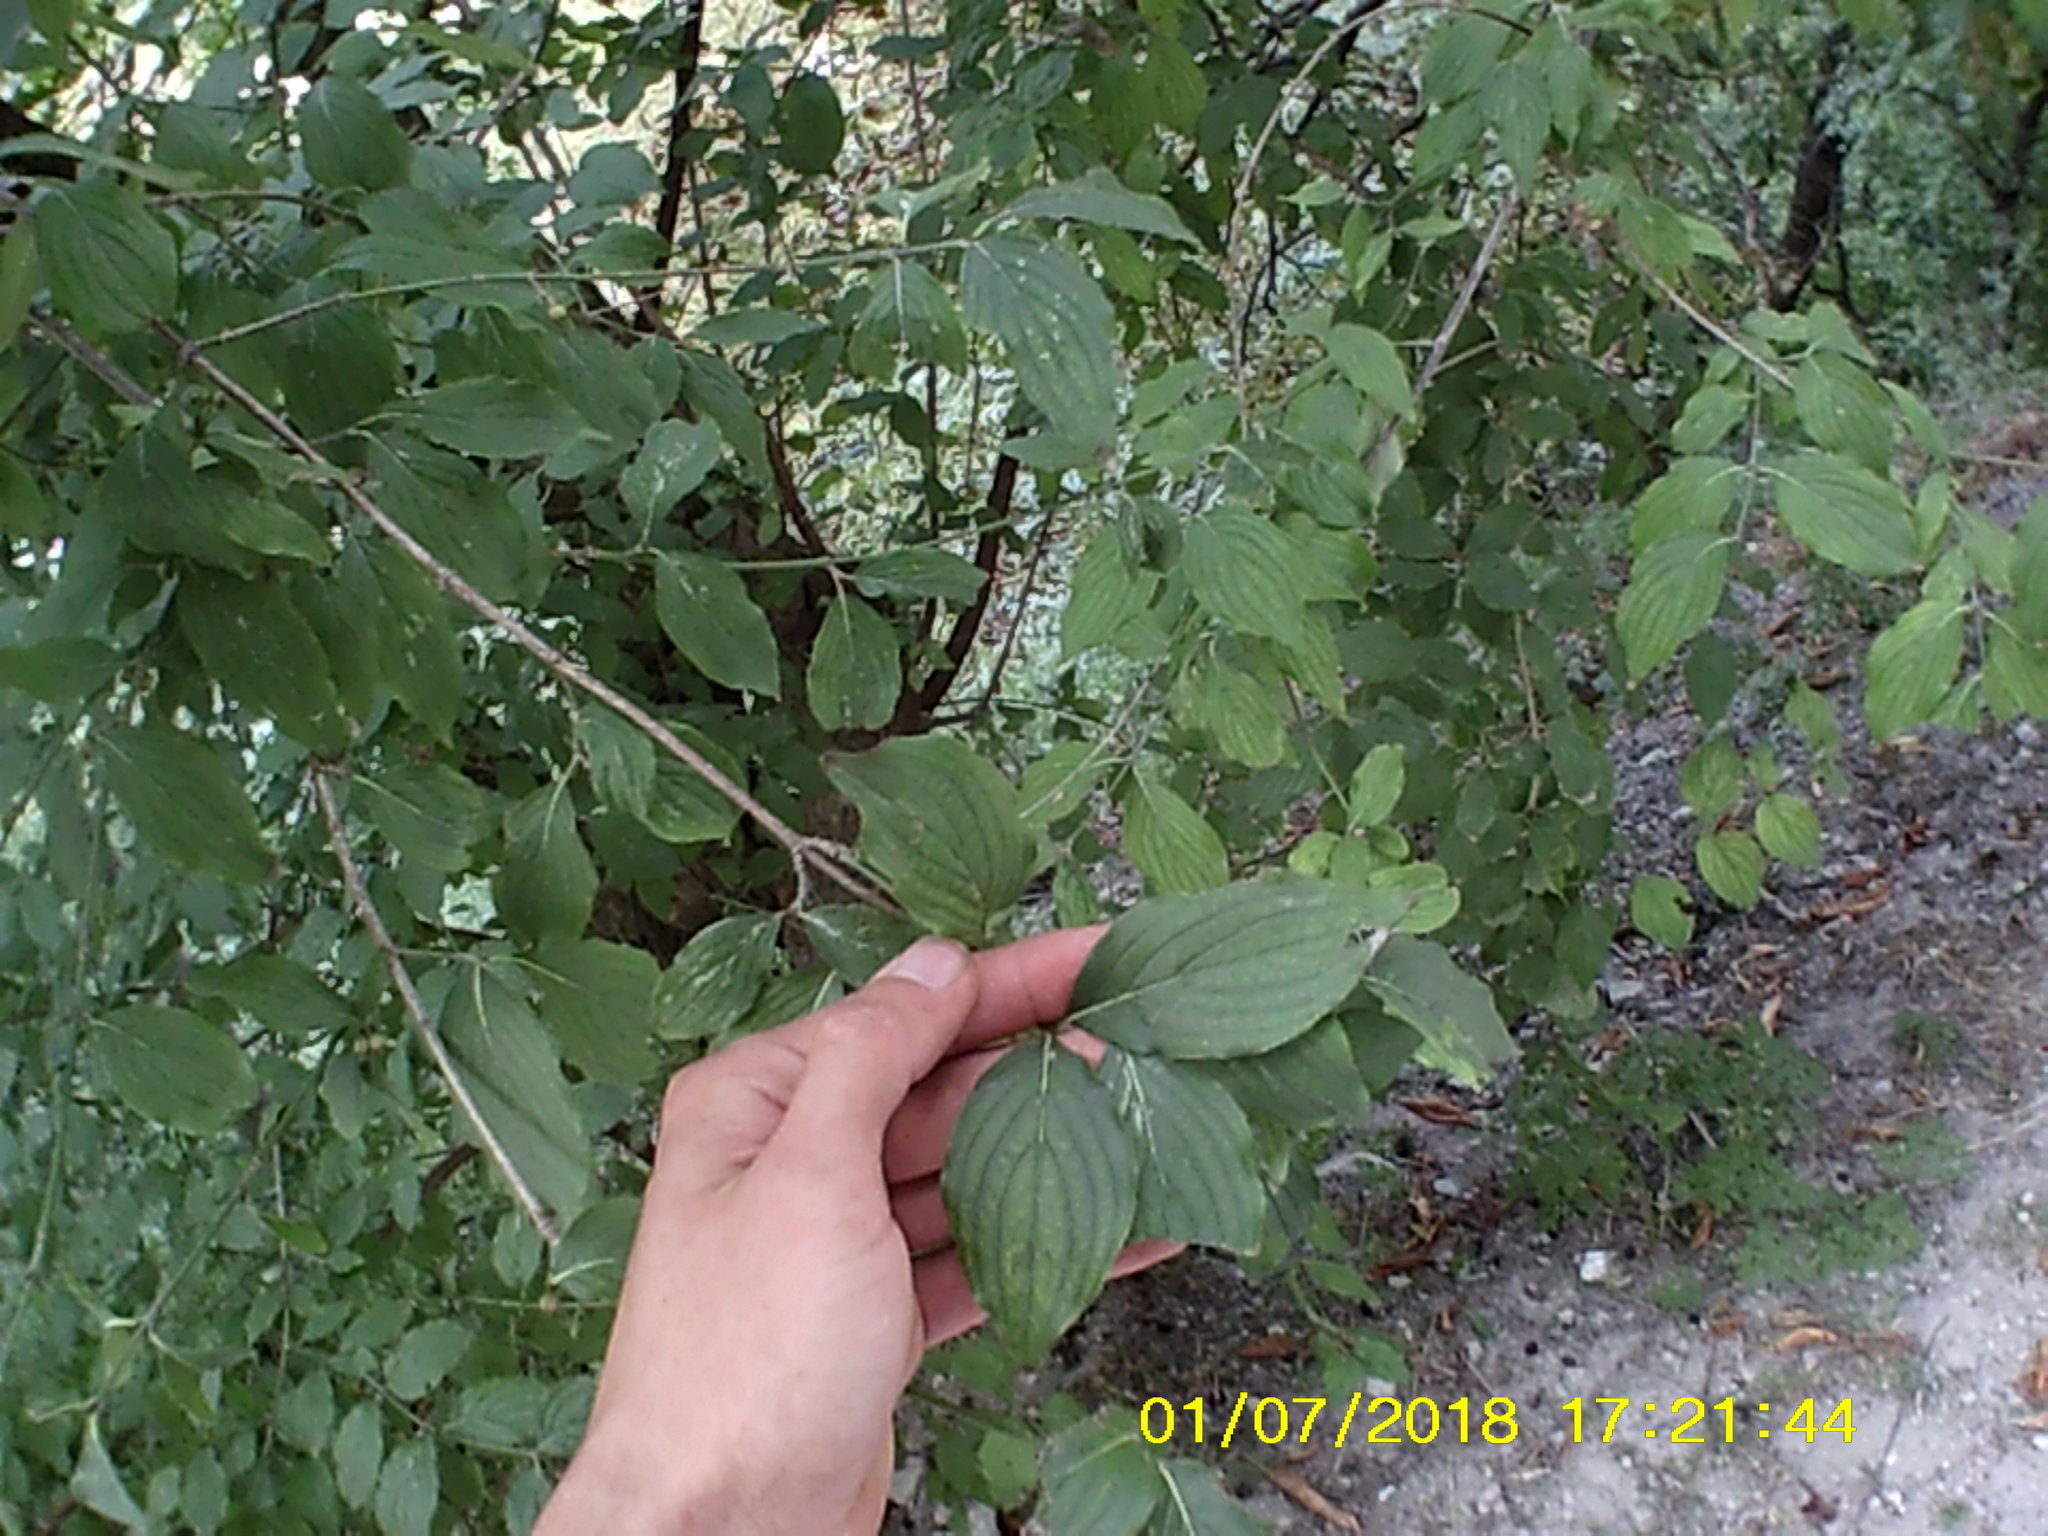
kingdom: Plantae
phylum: Tracheophyta
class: Magnoliopsida
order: Cornales
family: Cornaceae
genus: Cornus
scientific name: Cornus mas
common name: Cornelian-cherry
